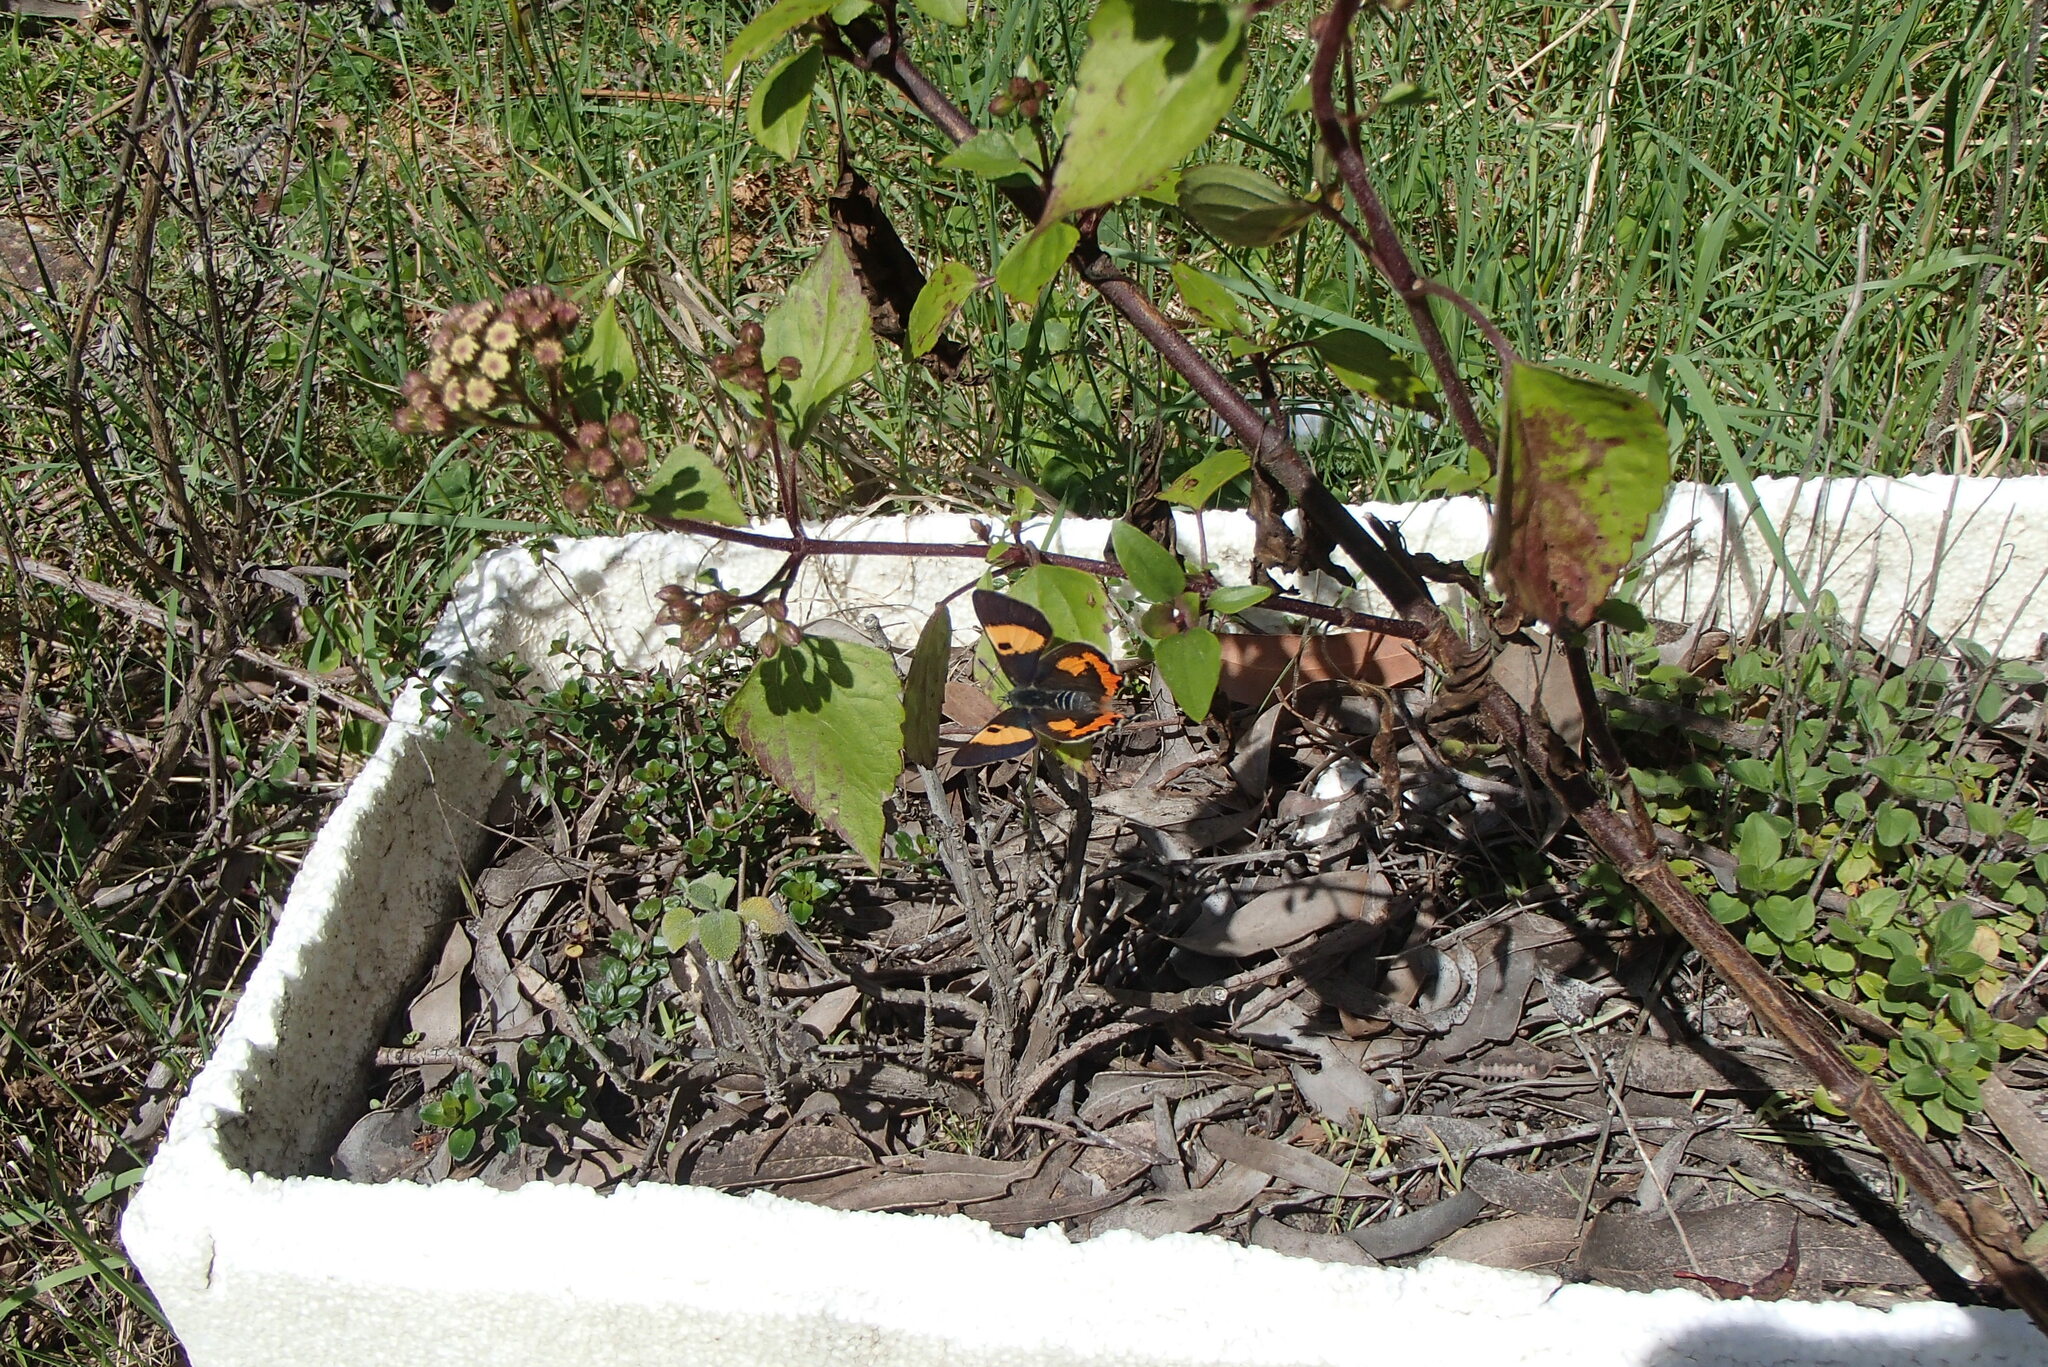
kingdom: Animalia
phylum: Arthropoda
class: Insecta
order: Lepidoptera
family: Lycaenidae
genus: Pseudalmenus
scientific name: Pseudalmenus chlorinda
